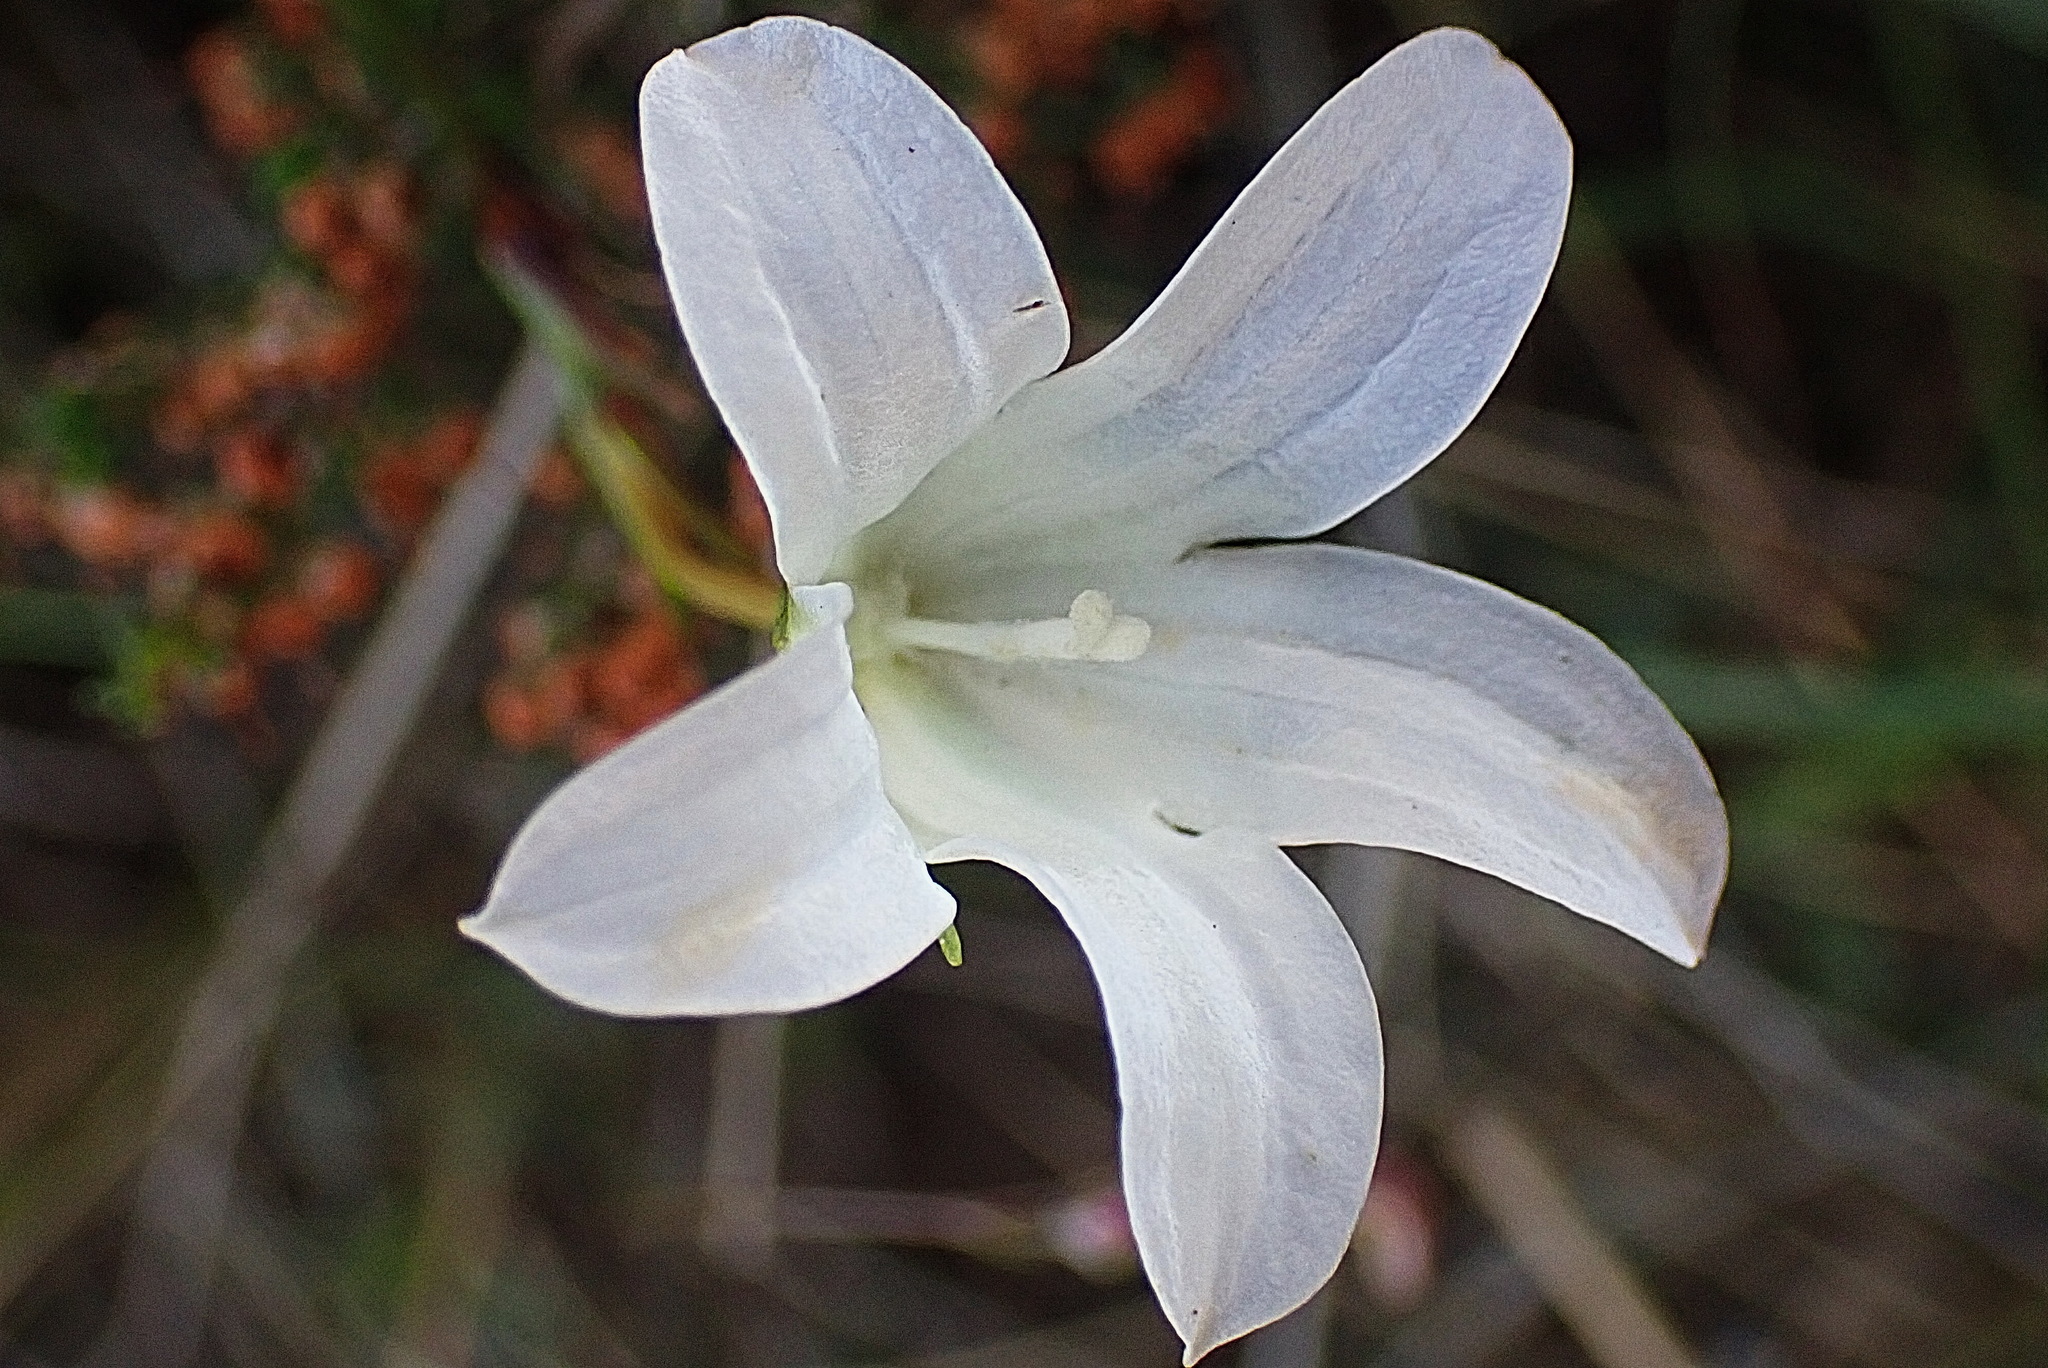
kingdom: Plantae
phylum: Tracheophyta
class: Magnoliopsida
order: Asterales
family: Campanulaceae
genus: Wahlenbergia
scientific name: Wahlenbergia procumbens
